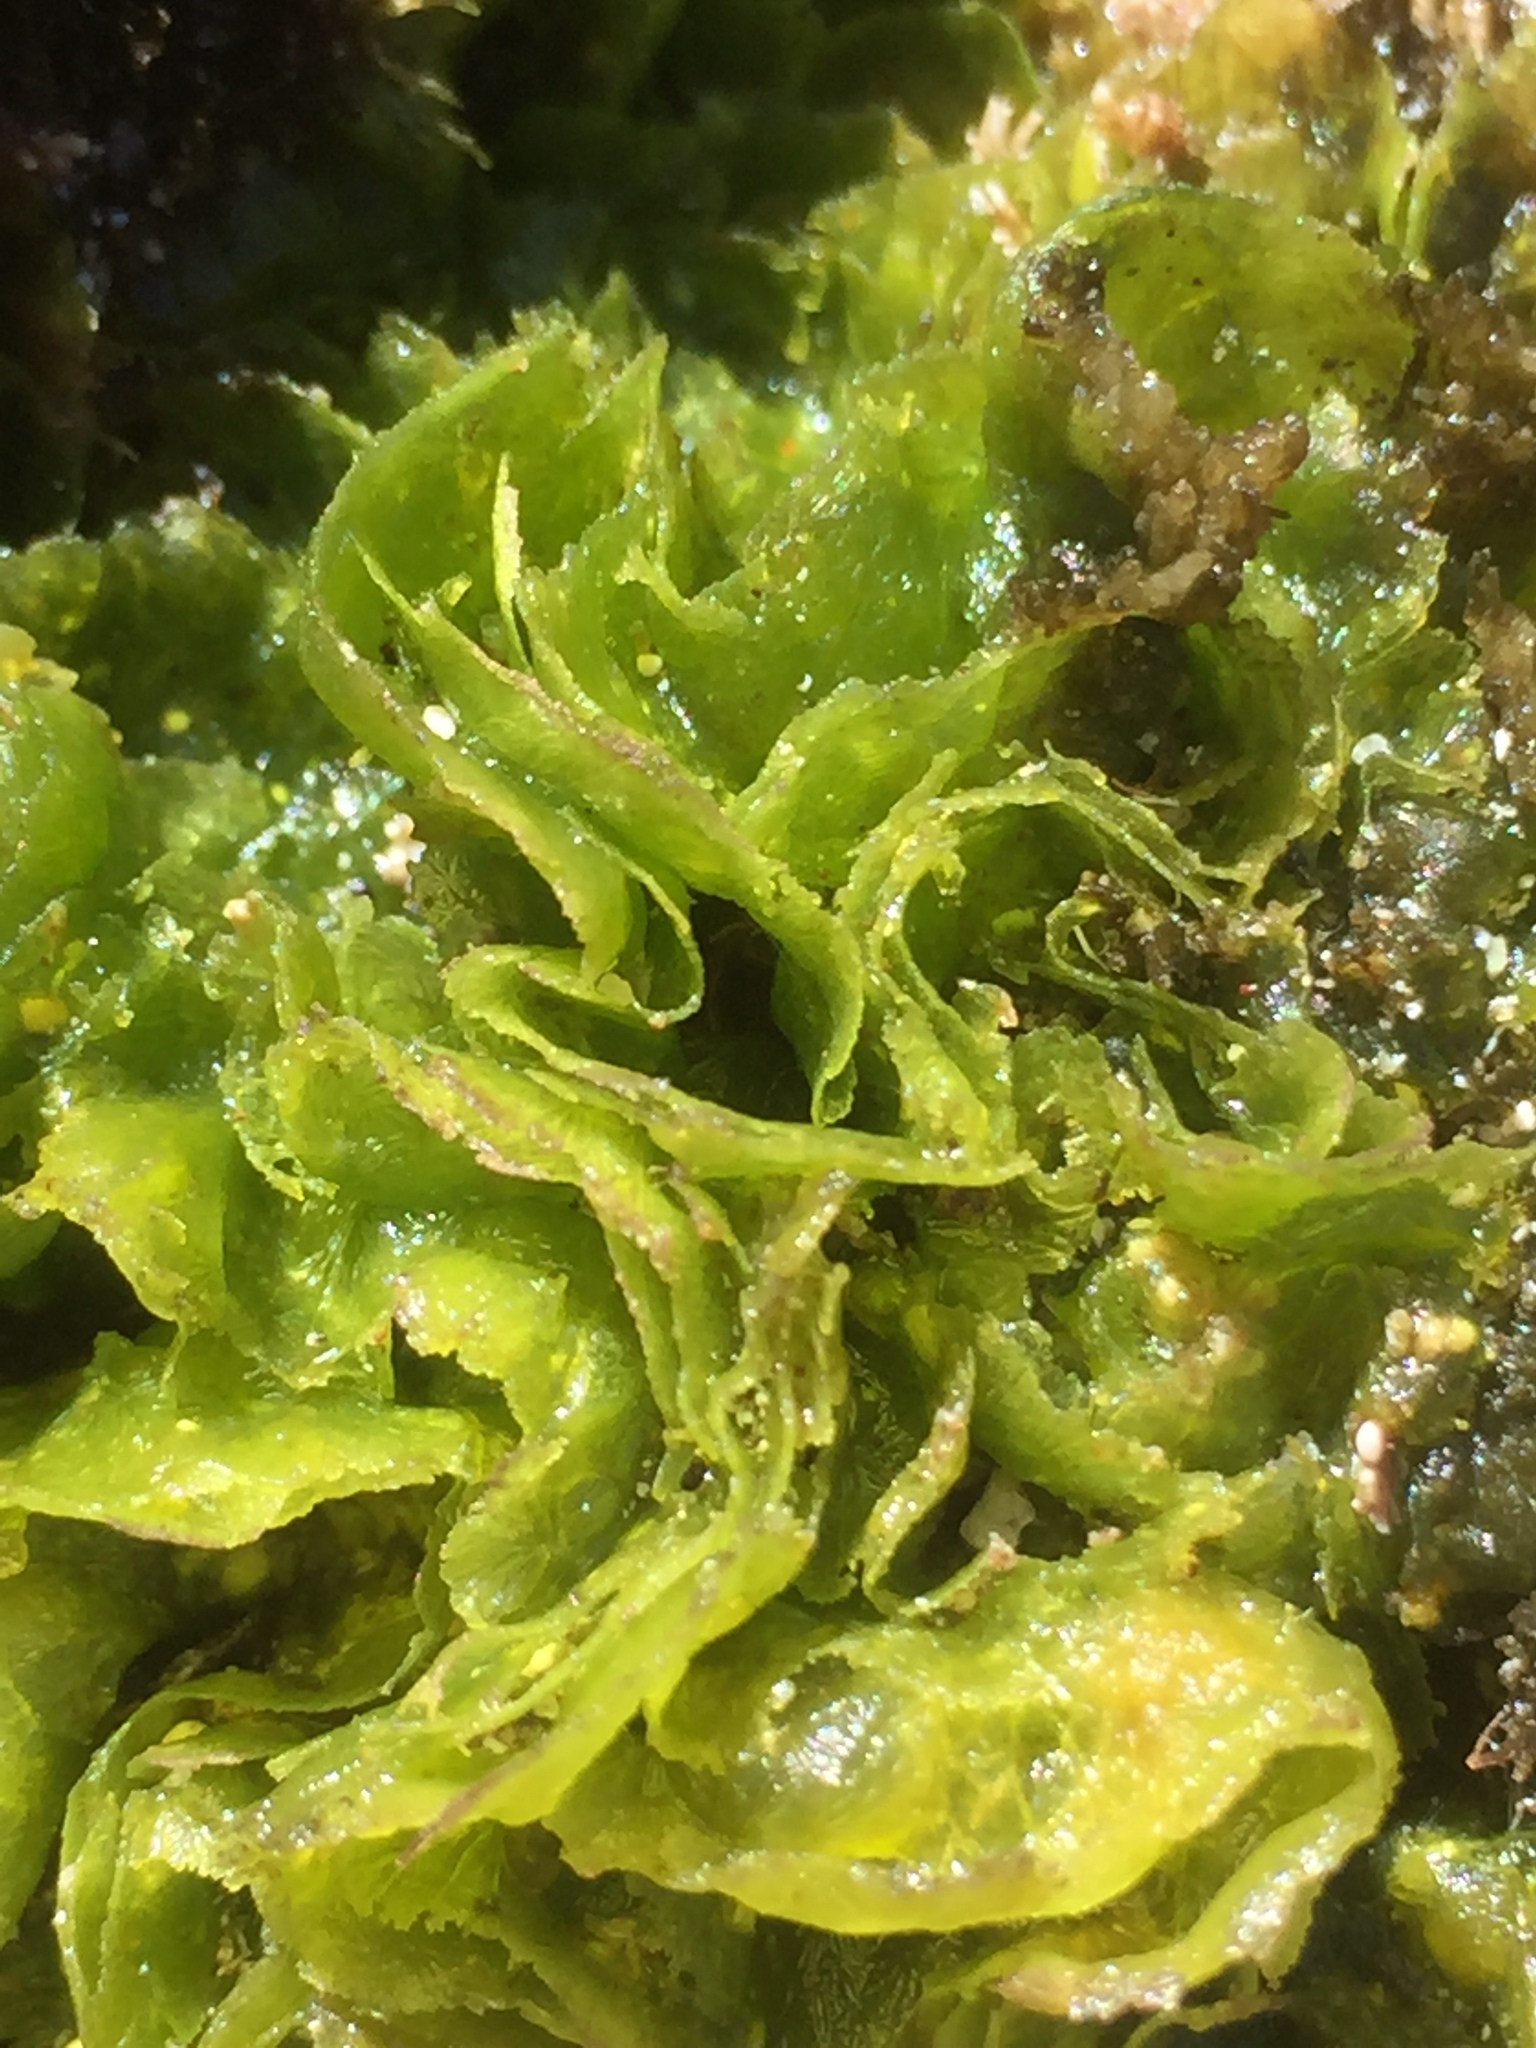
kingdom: Plantae
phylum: Chlorophyta
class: Ulvophyceae
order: Ulvales
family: Ulvaceae
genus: Ulva
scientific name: Ulva lactuca
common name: Sea lettuce
